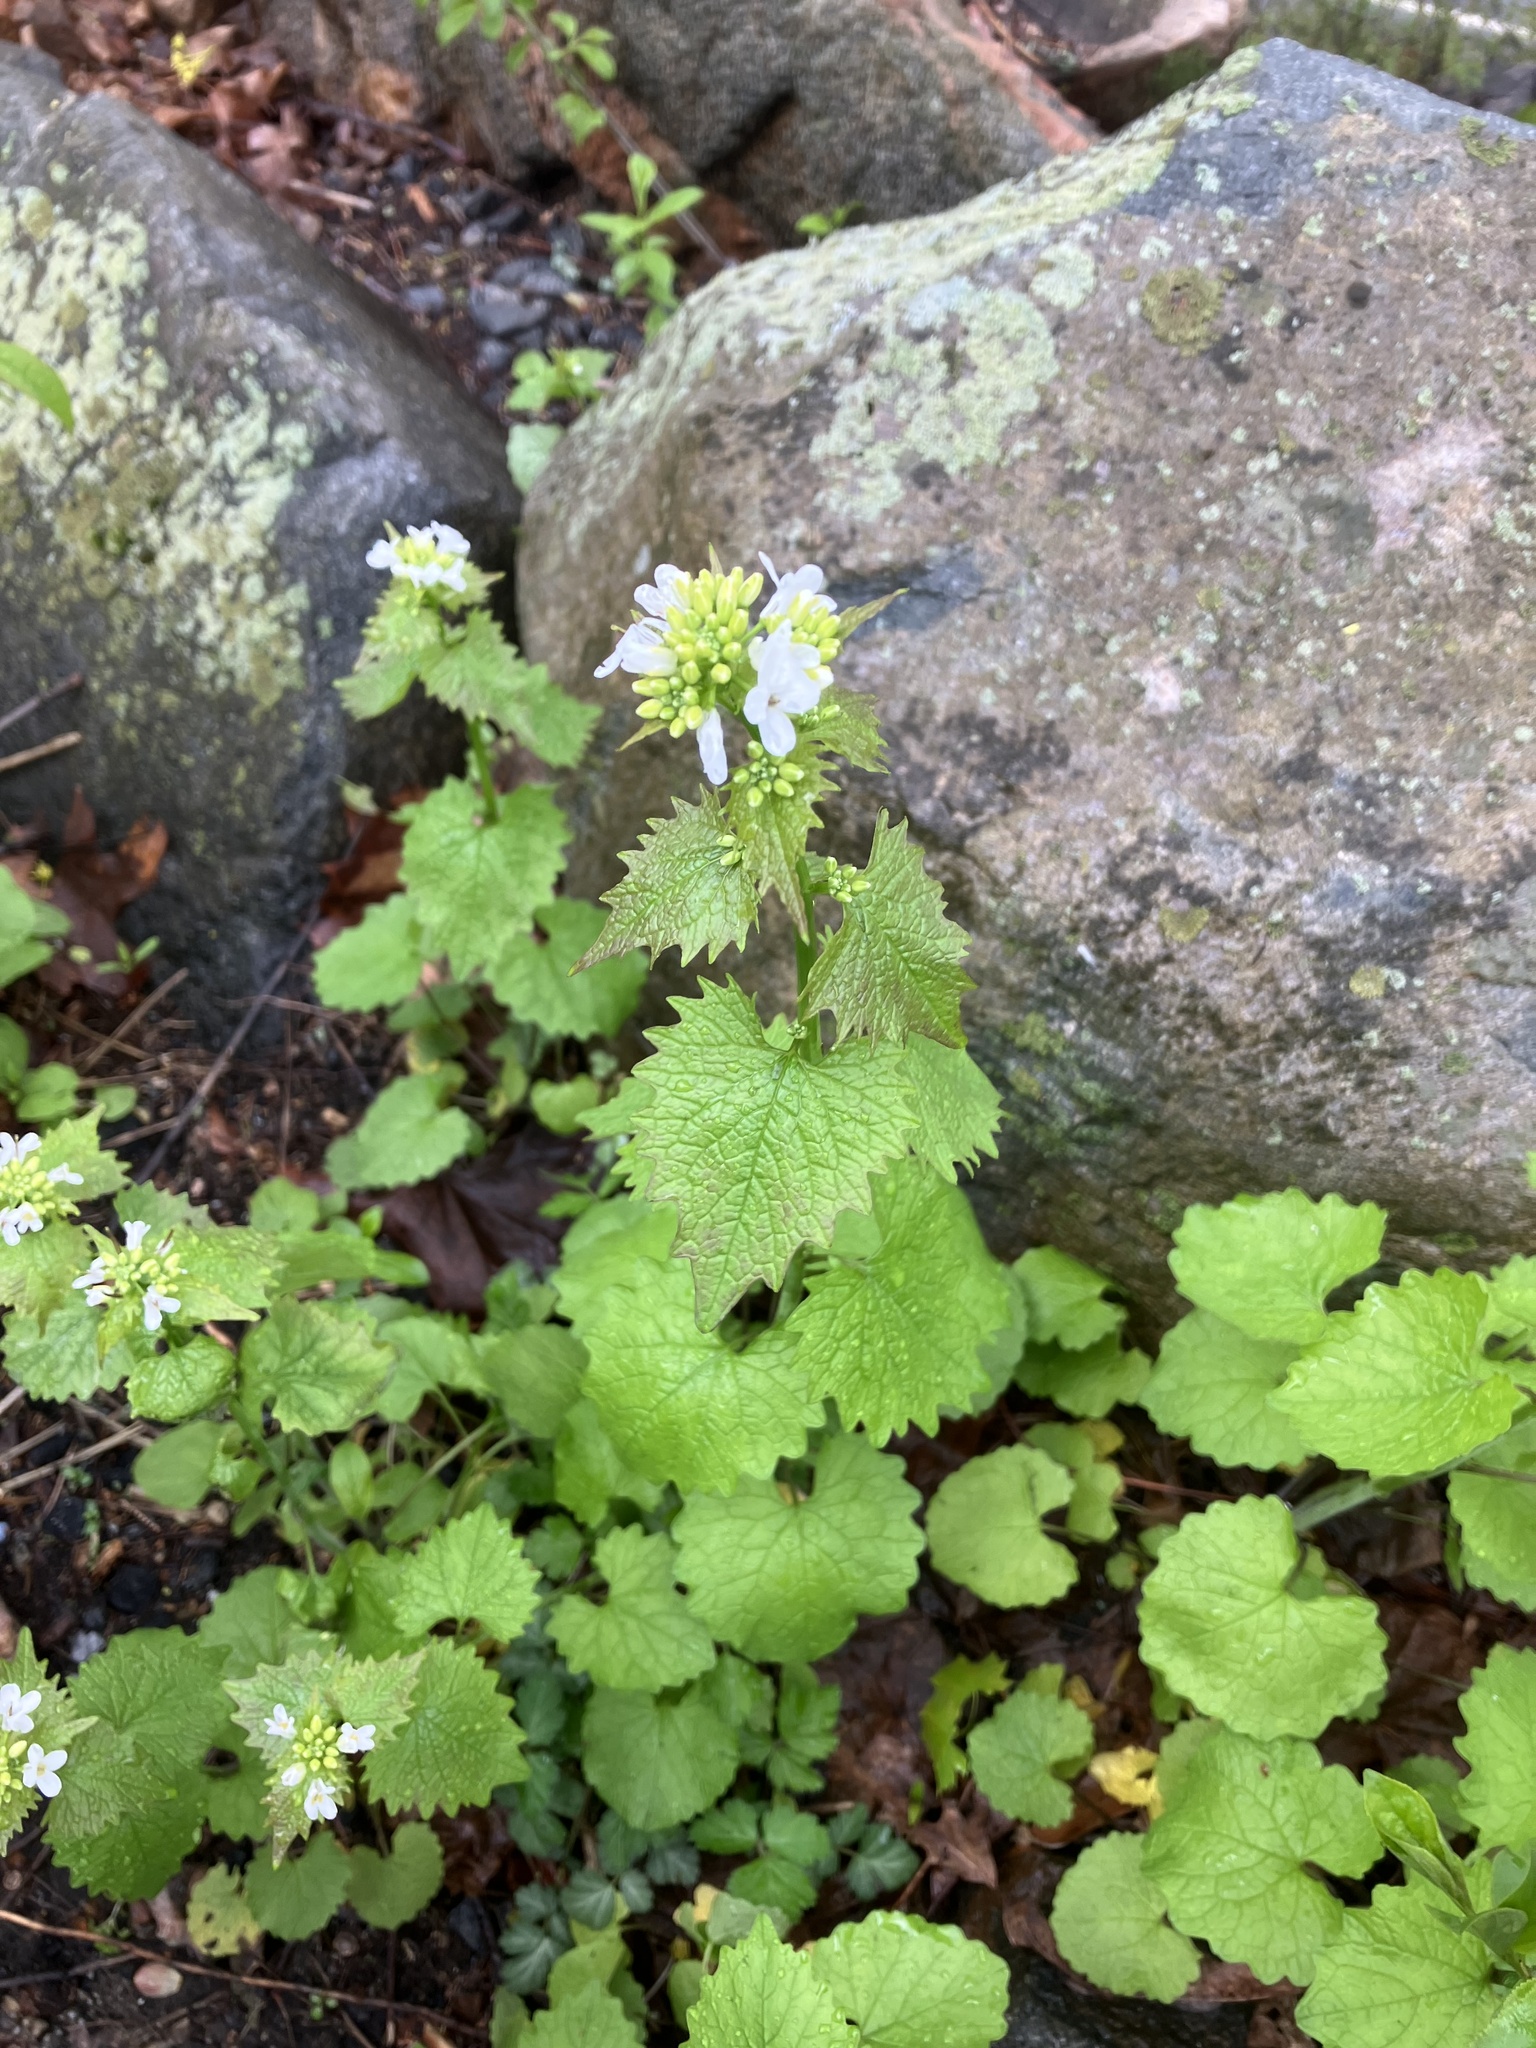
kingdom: Plantae
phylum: Tracheophyta
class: Magnoliopsida
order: Brassicales
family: Brassicaceae
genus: Alliaria
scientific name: Alliaria petiolata
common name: Garlic mustard
